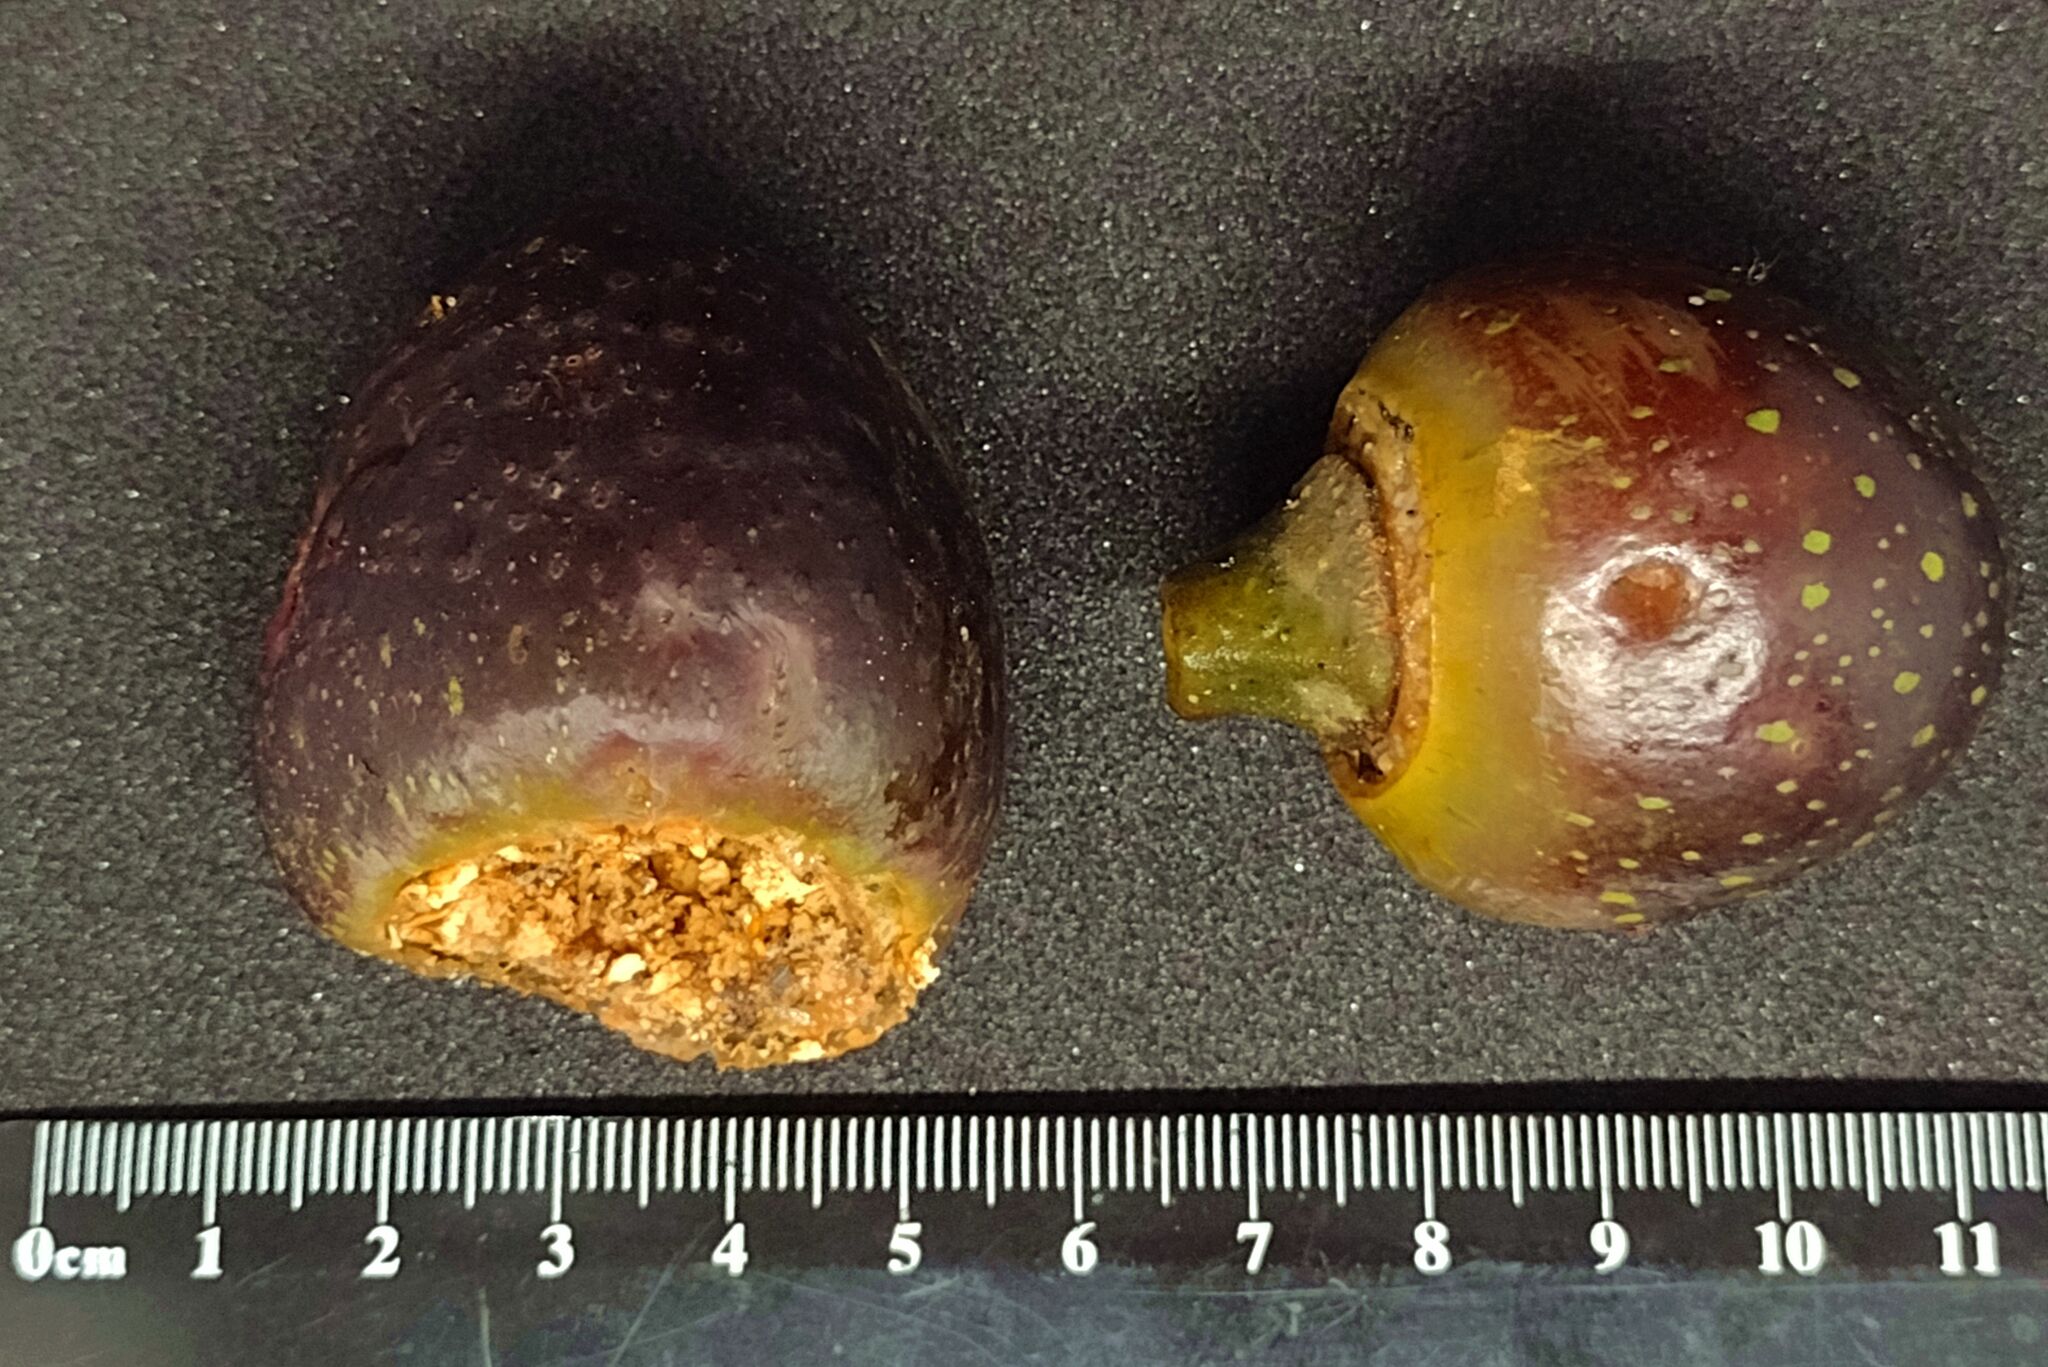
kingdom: Plantae
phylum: Tracheophyta
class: Magnoliopsida
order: Rosales
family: Moraceae
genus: Ficus
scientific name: Ficus watkinsiana
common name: Watkins fig
